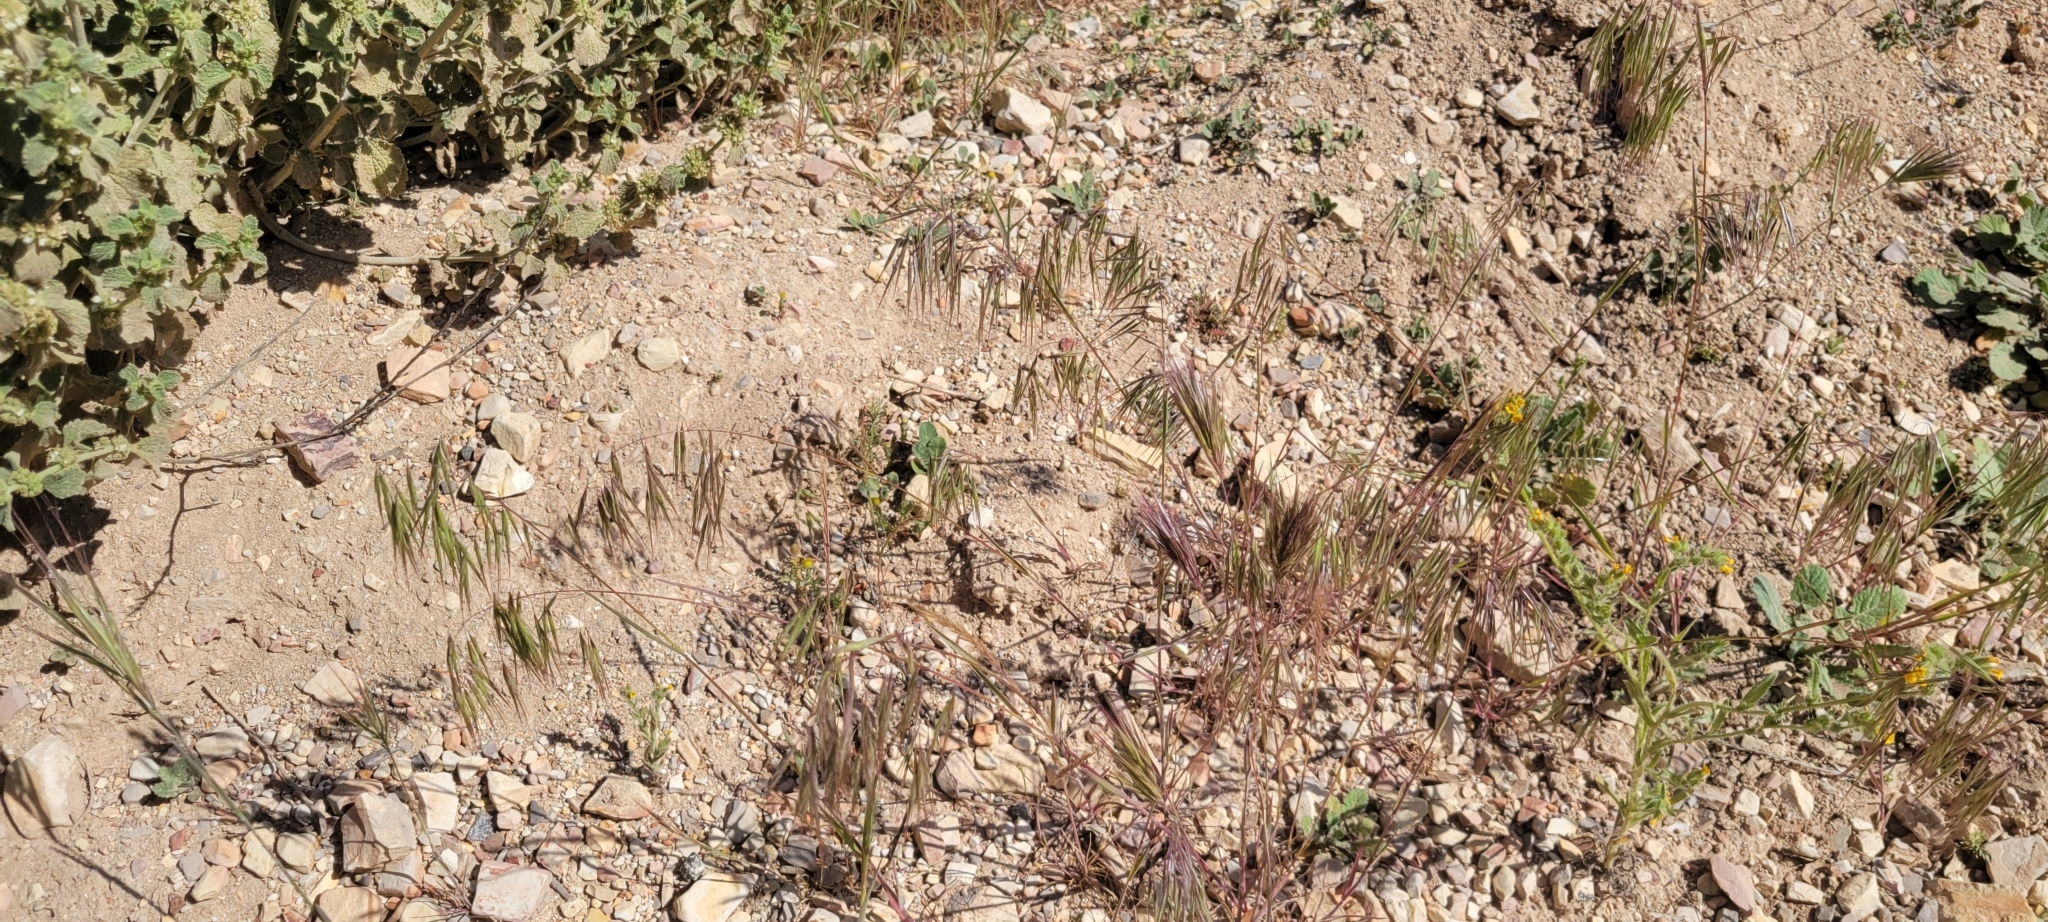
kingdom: Plantae
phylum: Tracheophyta
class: Liliopsida
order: Poales
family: Poaceae
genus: Bromus
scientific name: Bromus tectorum
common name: Cheatgrass
